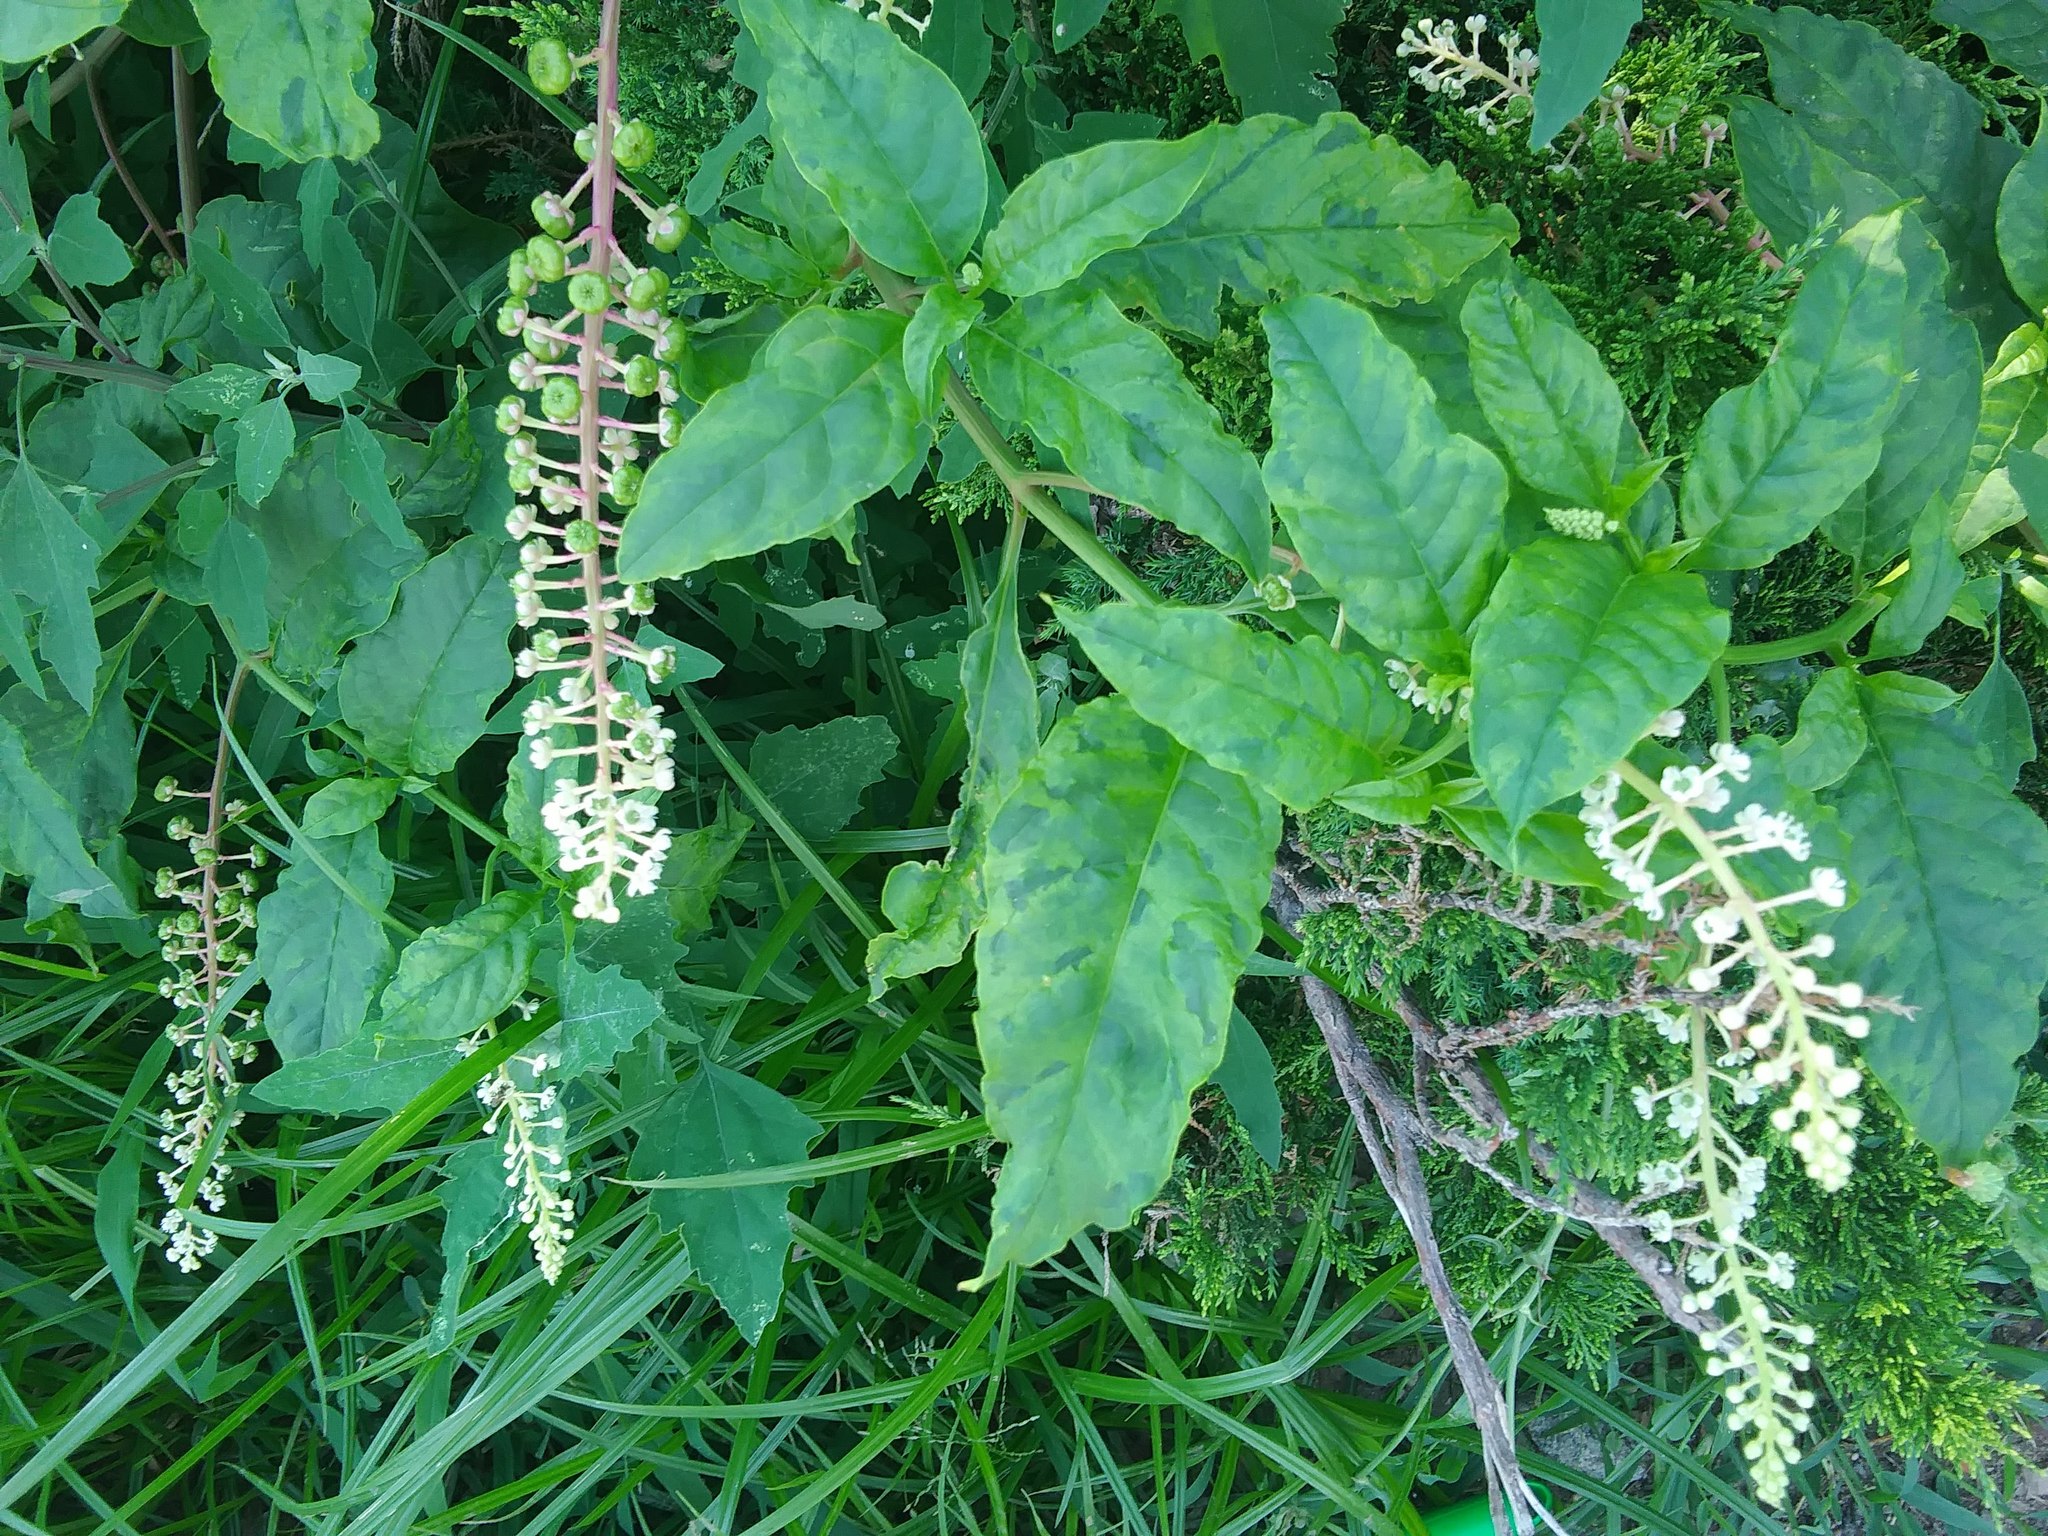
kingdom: Plantae
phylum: Tracheophyta
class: Magnoliopsida
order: Caryophyllales
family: Phytolaccaceae
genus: Phytolacca
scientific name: Phytolacca americana
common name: American pokeweed
